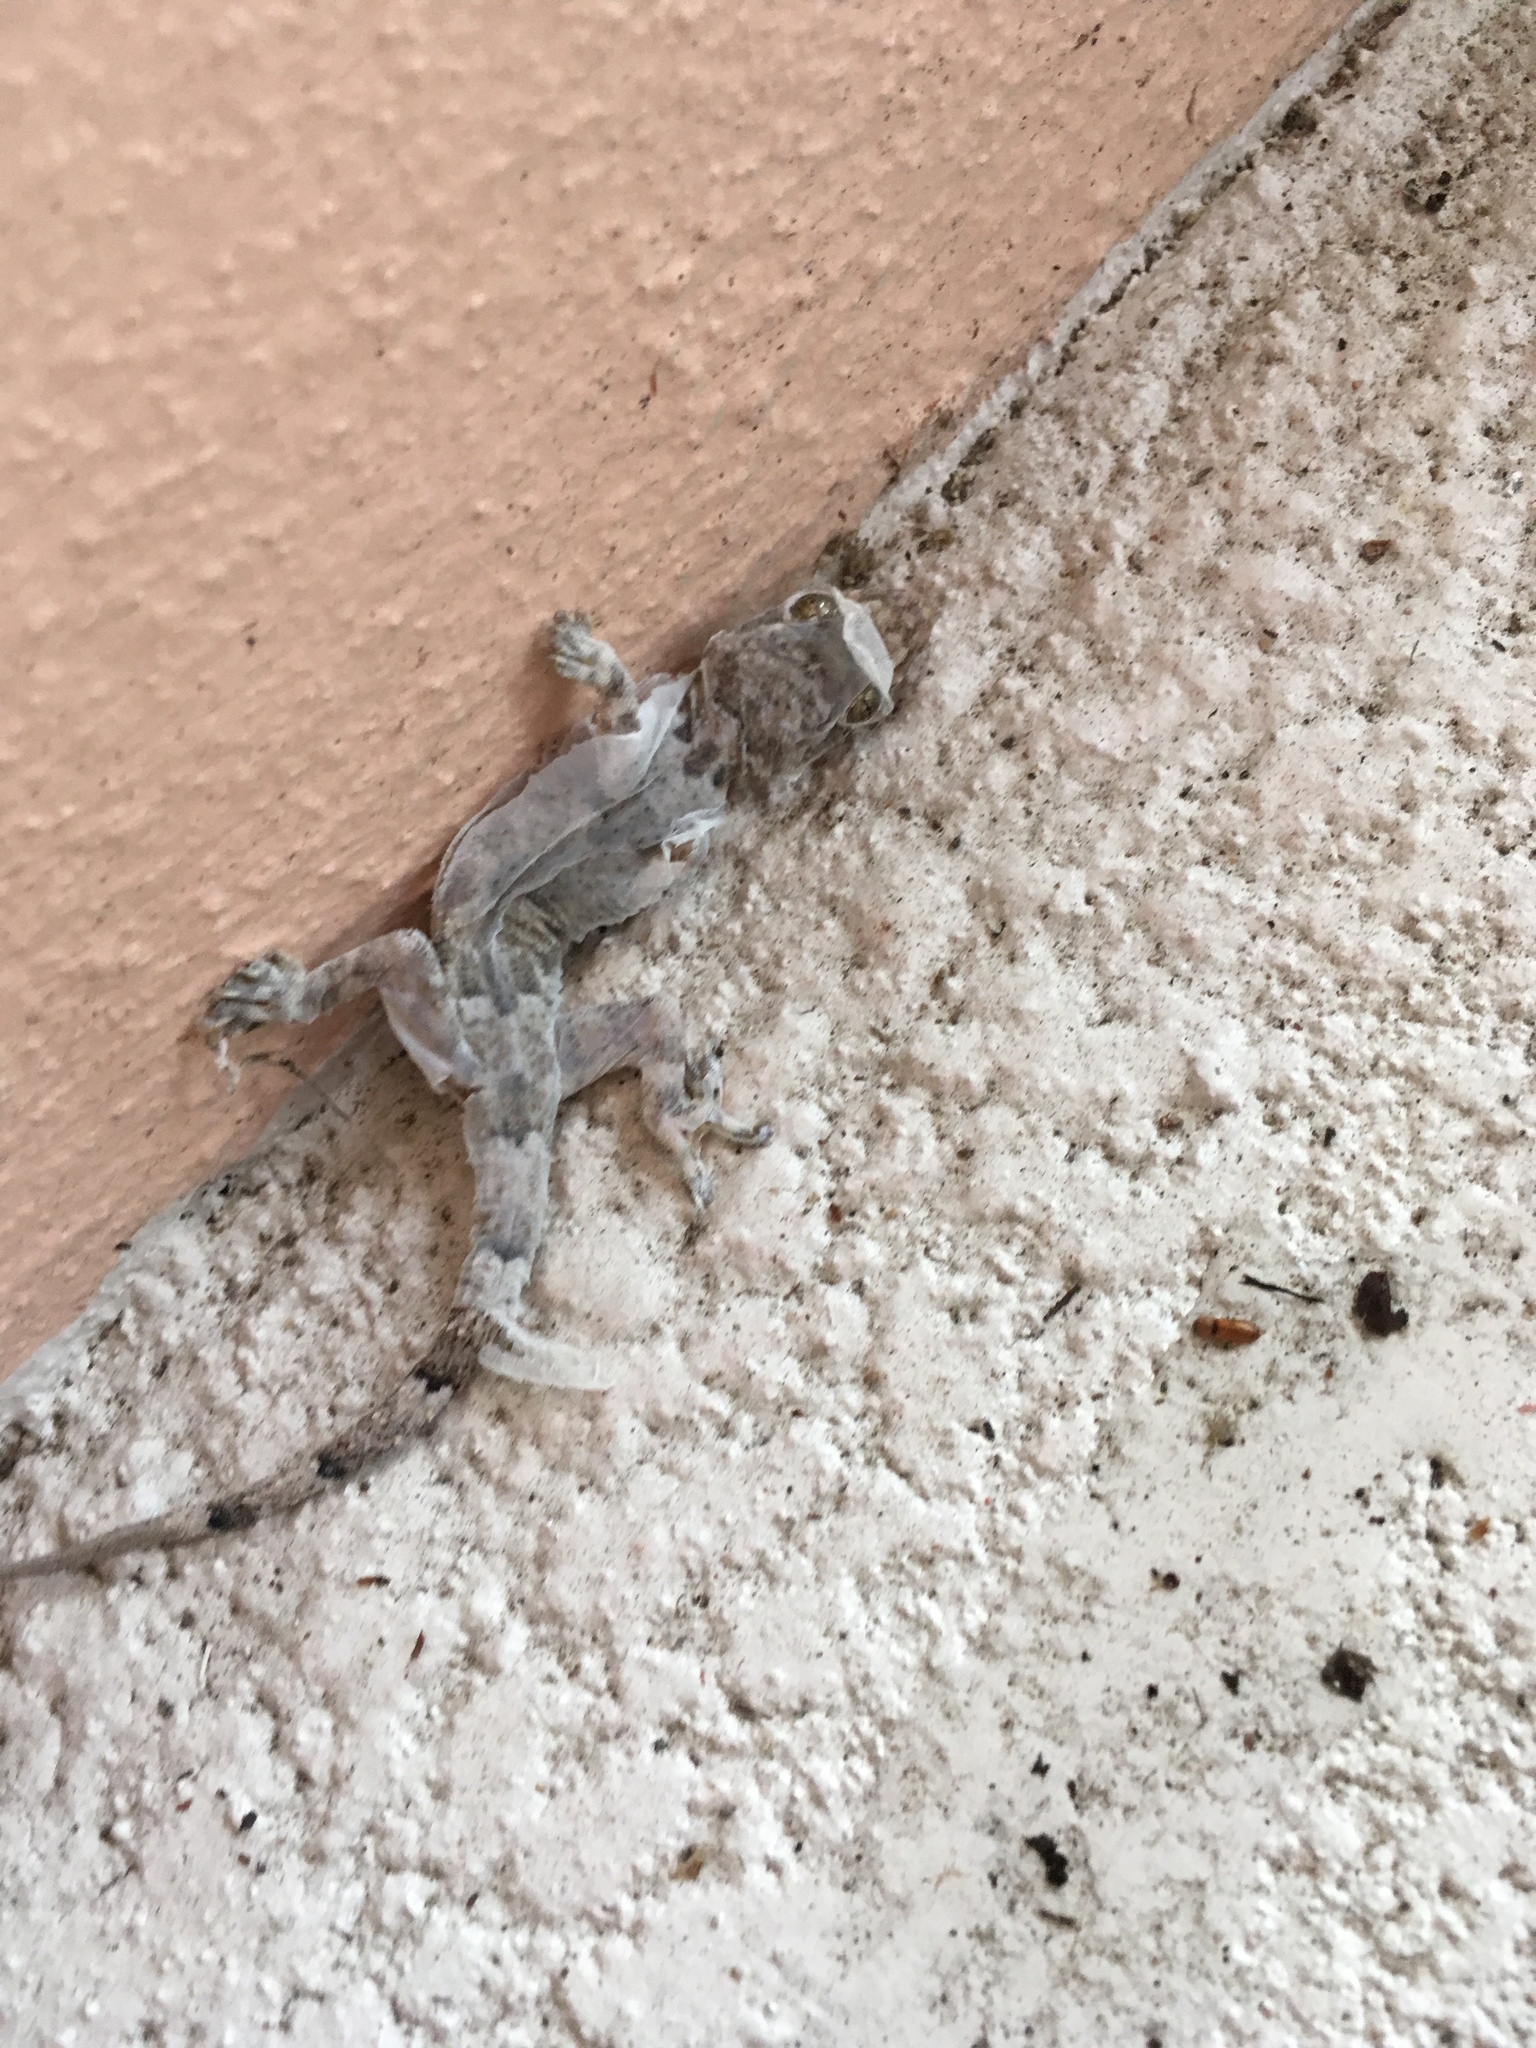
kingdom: Animalia
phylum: Chordata
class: Squamata
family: Gekkonidae
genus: Hemidactylus
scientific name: Hemidactylus mabouia
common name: House gecko
